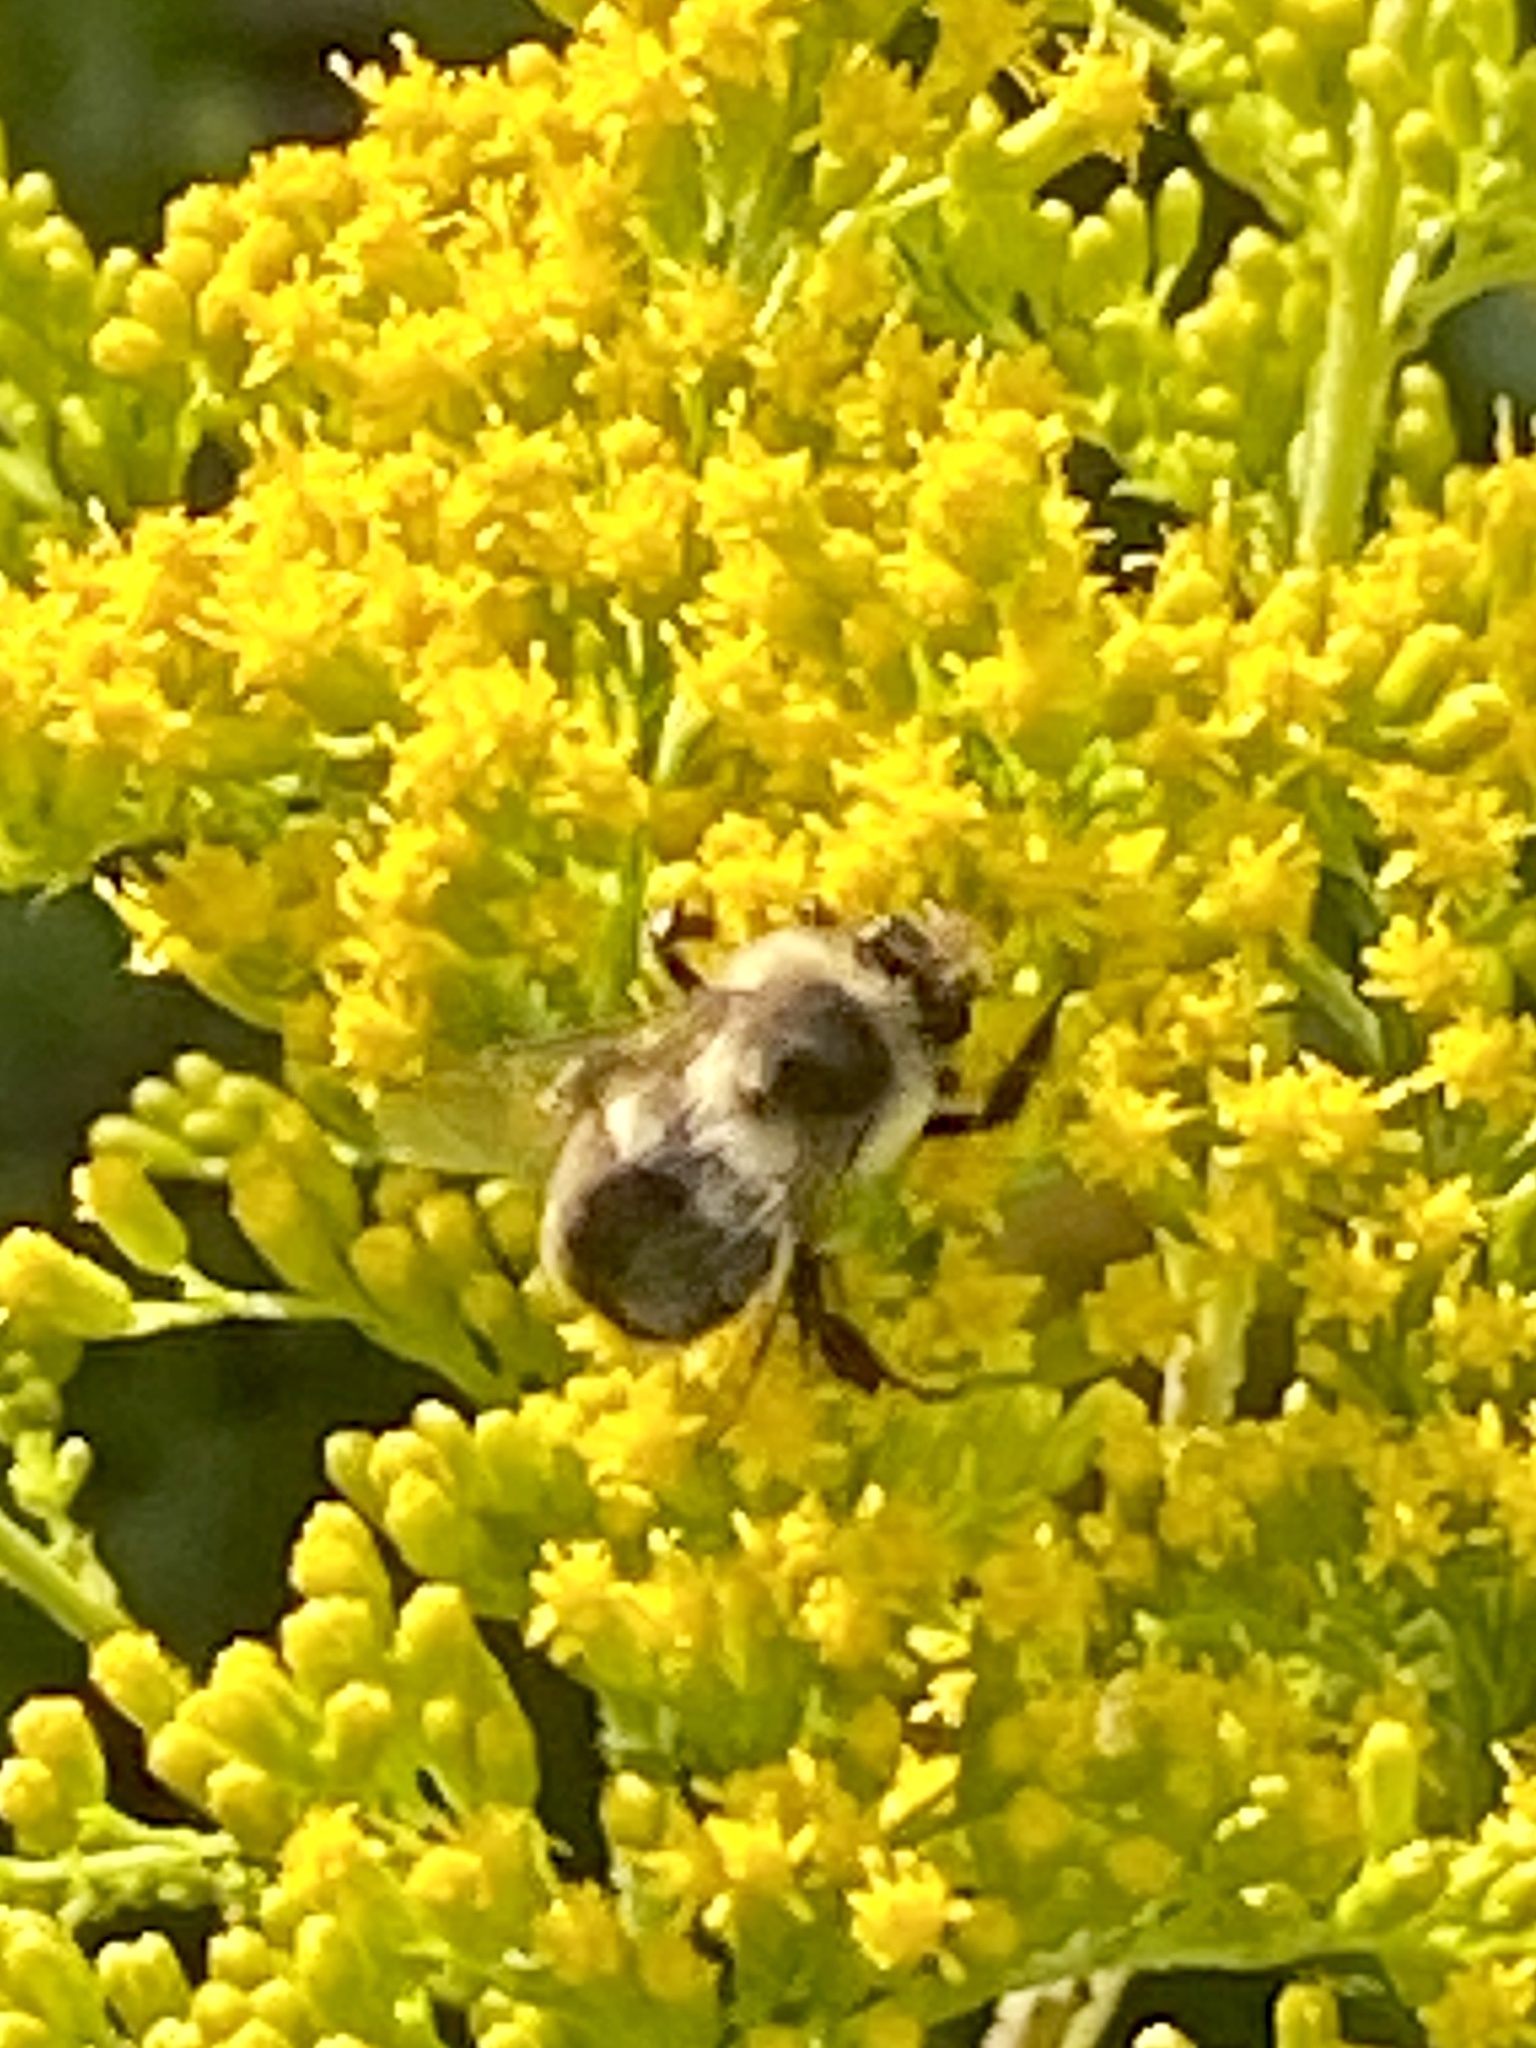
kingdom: Animalia
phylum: Arthropoda
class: Insecta
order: Hymenoptera
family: Apidae
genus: Bombus
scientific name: Bombus impatiens
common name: Common eastern bumble bee
